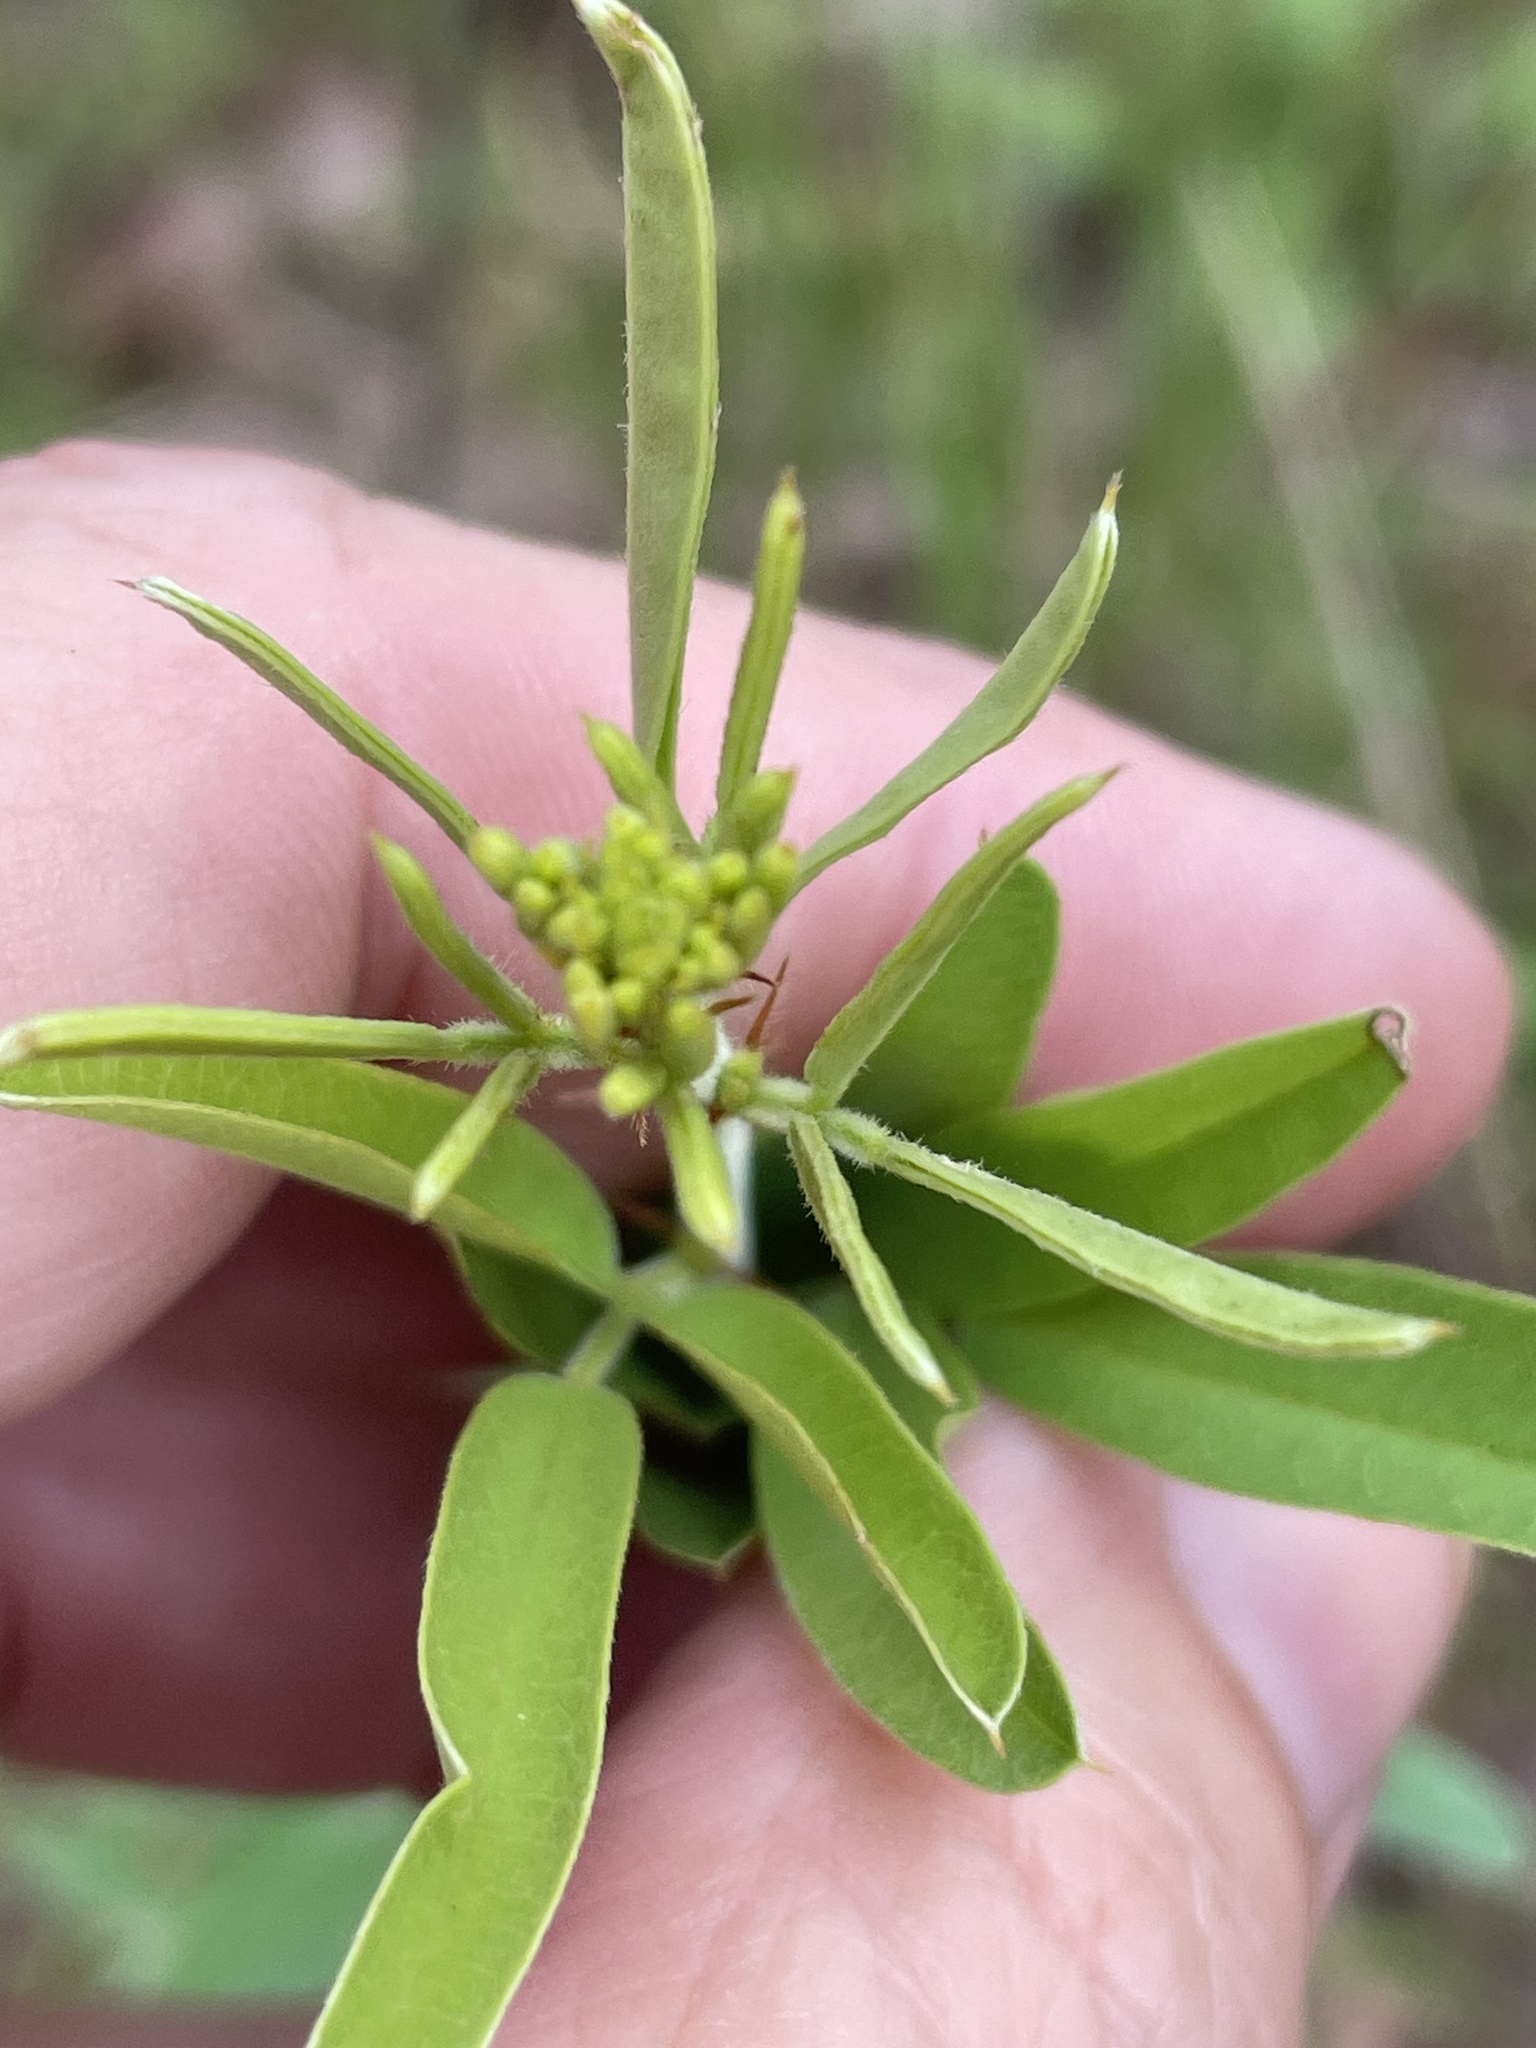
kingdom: Plantae
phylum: Tracheophyta
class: Magnoliopsida
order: Fabales
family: Fabaceae
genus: Lespedeza
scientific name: Lespedeza capitata
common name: Dusty clover
